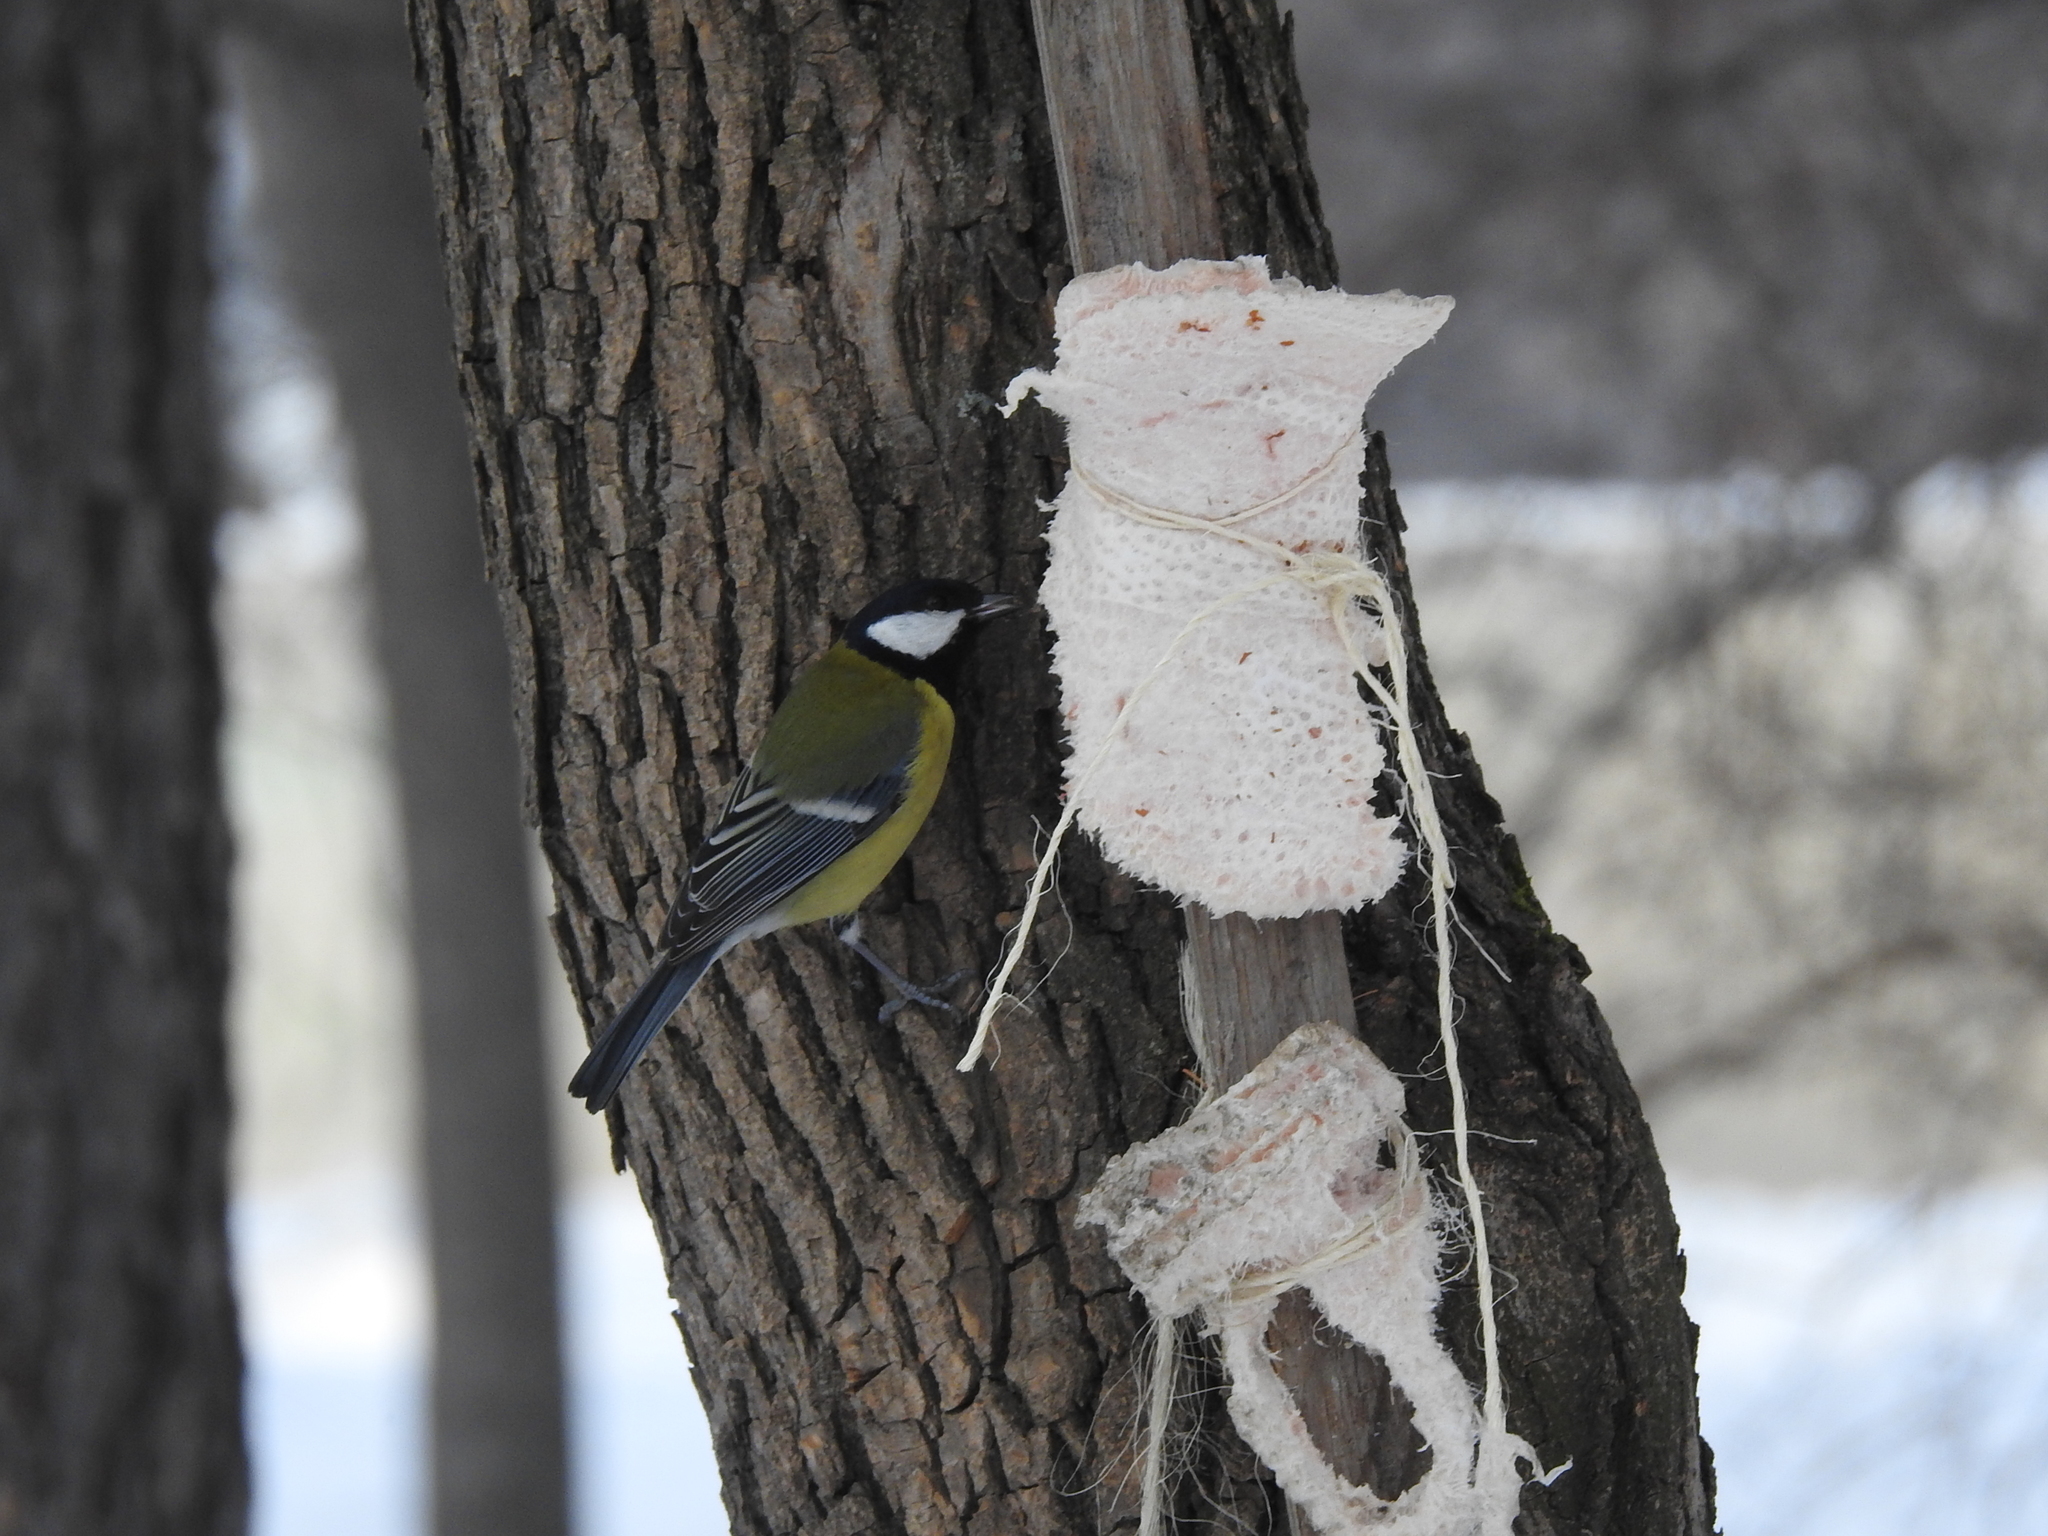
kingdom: Animalia
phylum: Chordata
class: Aves
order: Passeriformes
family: Paridae
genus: Parus
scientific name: Parus major
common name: Great tit
